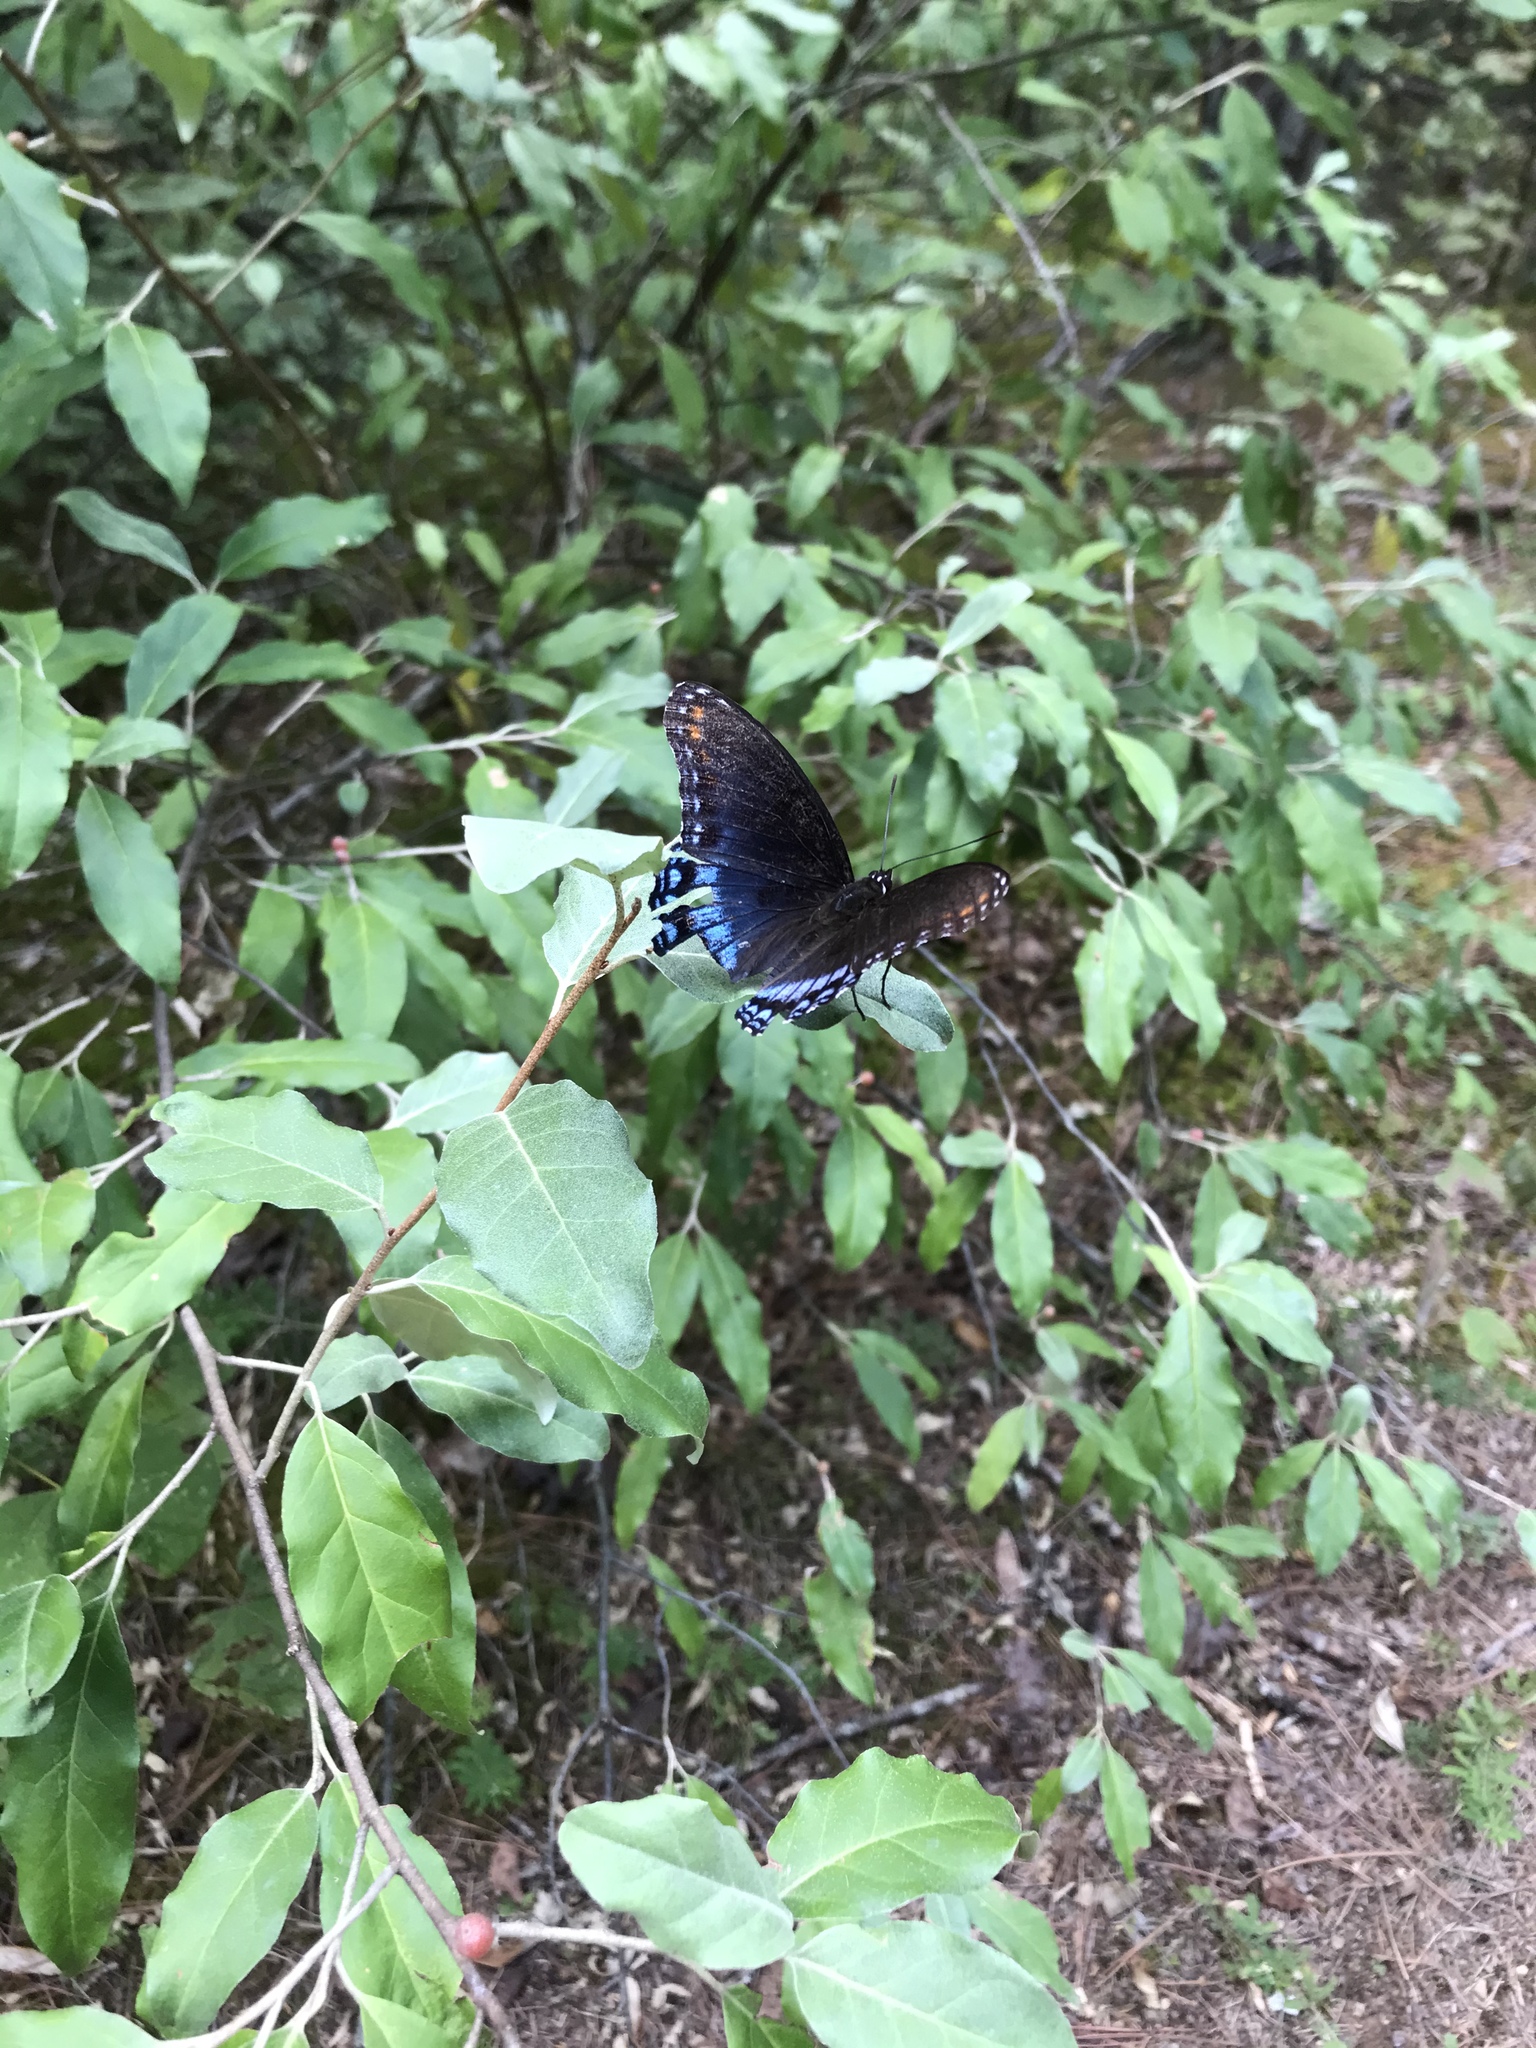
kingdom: Animalia
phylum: Arthropoda
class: Insecta
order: Lepidoptera
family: Nymphalidae
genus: Limenitis
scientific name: Limenitis astyanax
